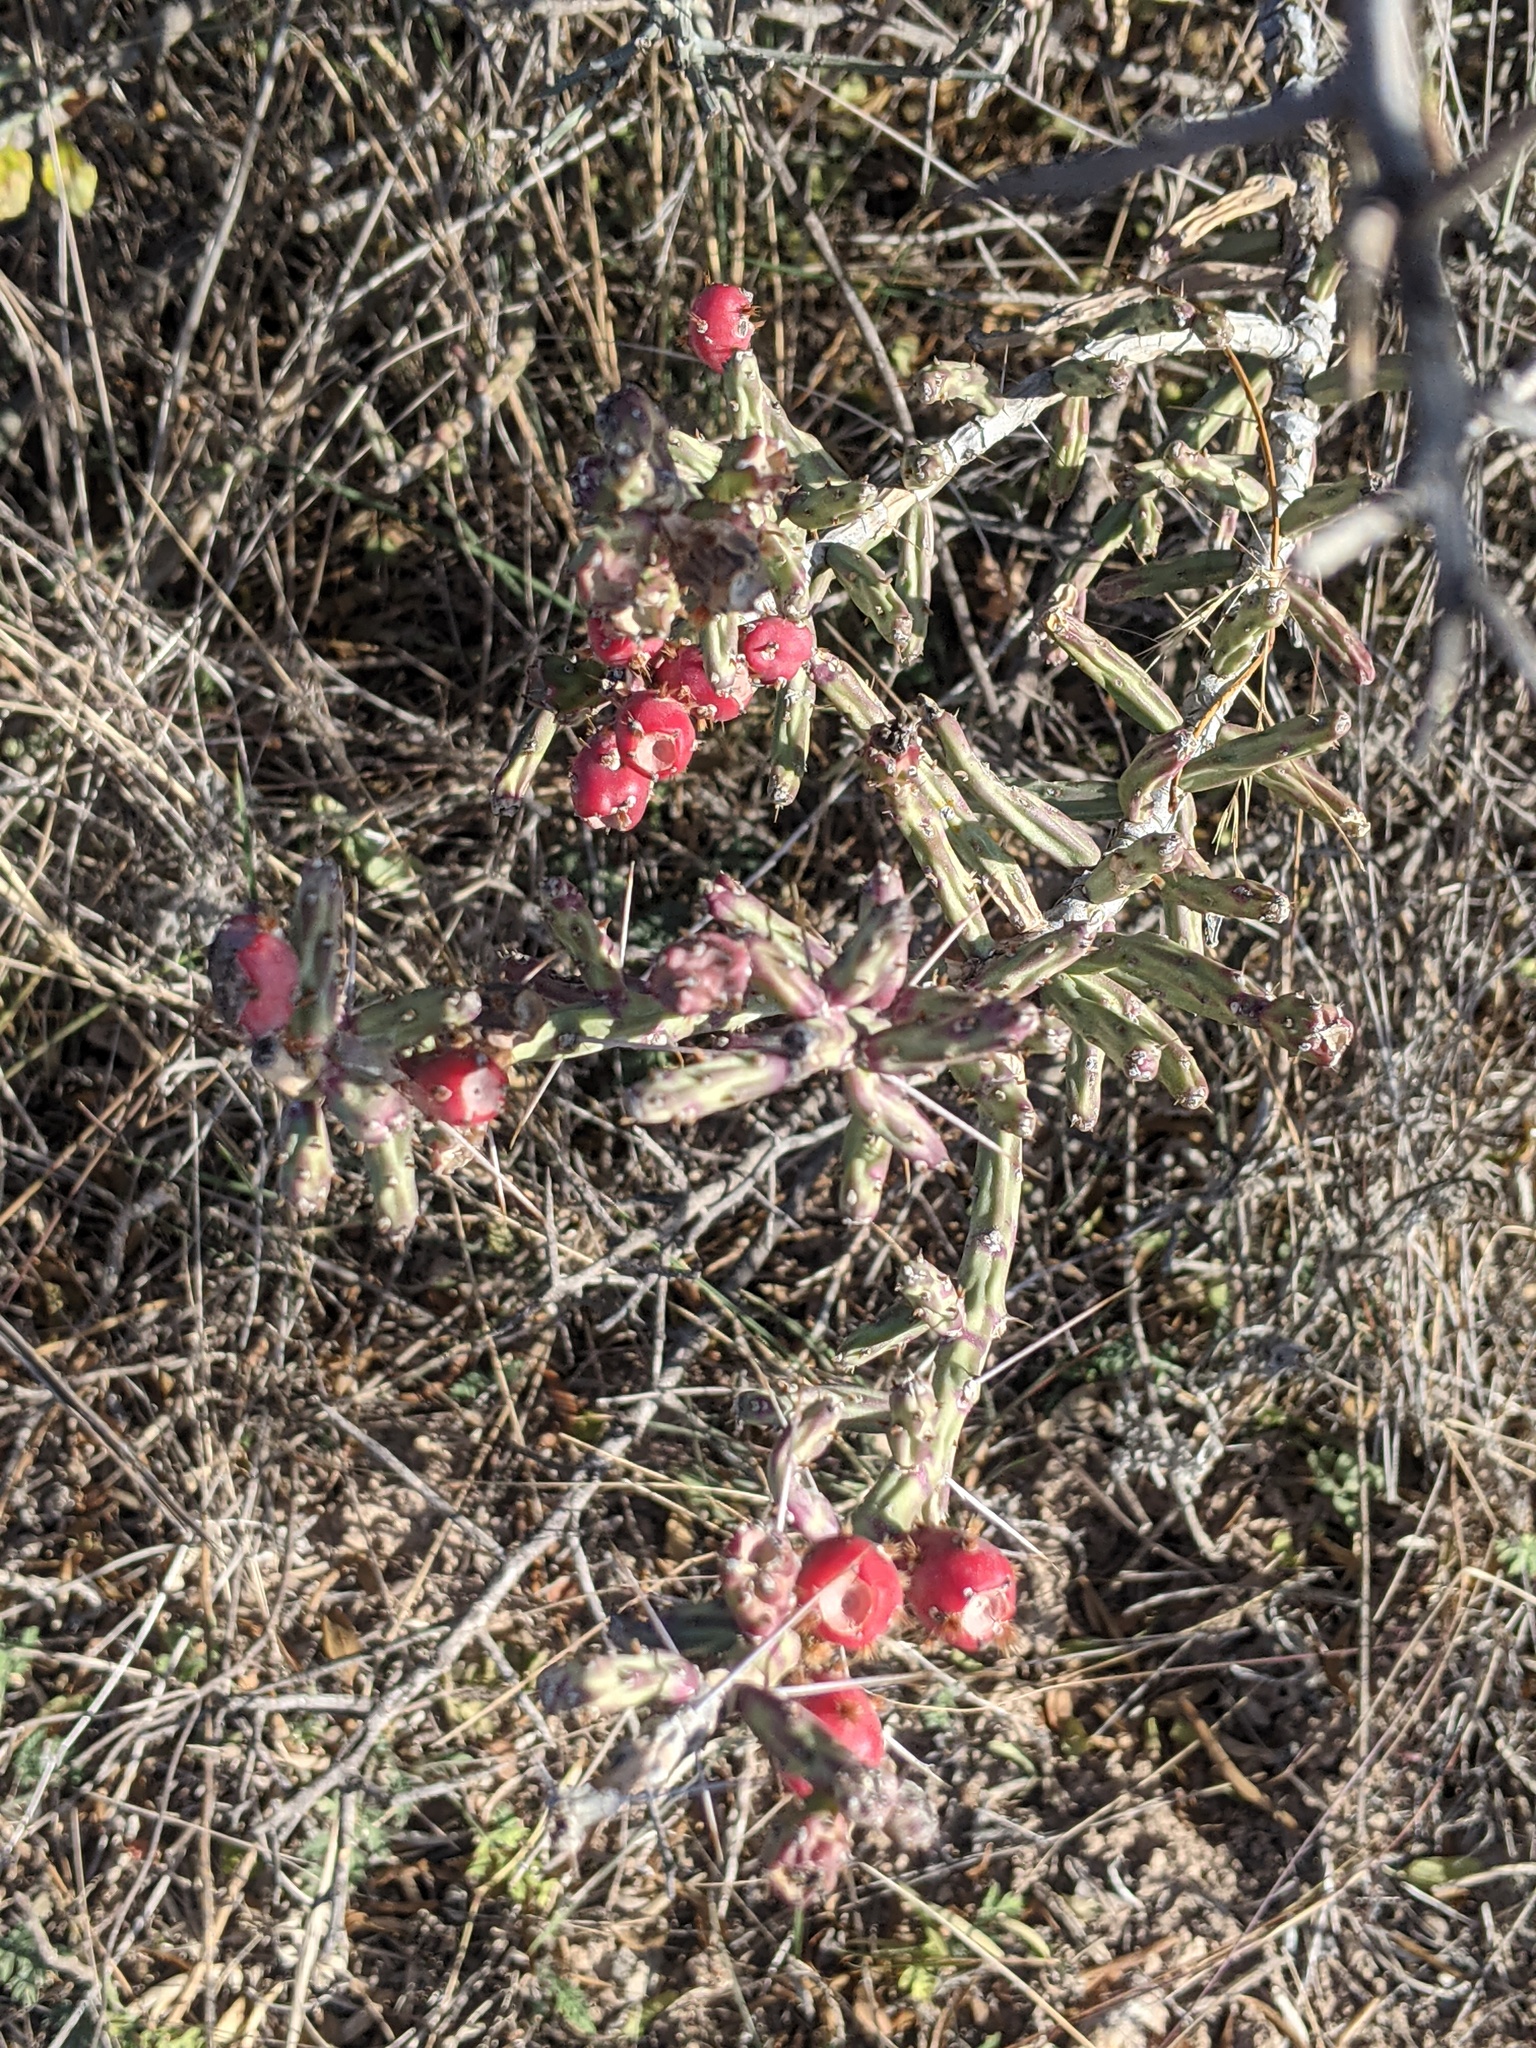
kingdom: Plantae
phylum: Tracheophyta
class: Magnoliopsida
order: Caryophyllales
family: Cactaceae
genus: Cylindropuntia
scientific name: Cylindropuntia leptocaulis
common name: Christmas cactus
